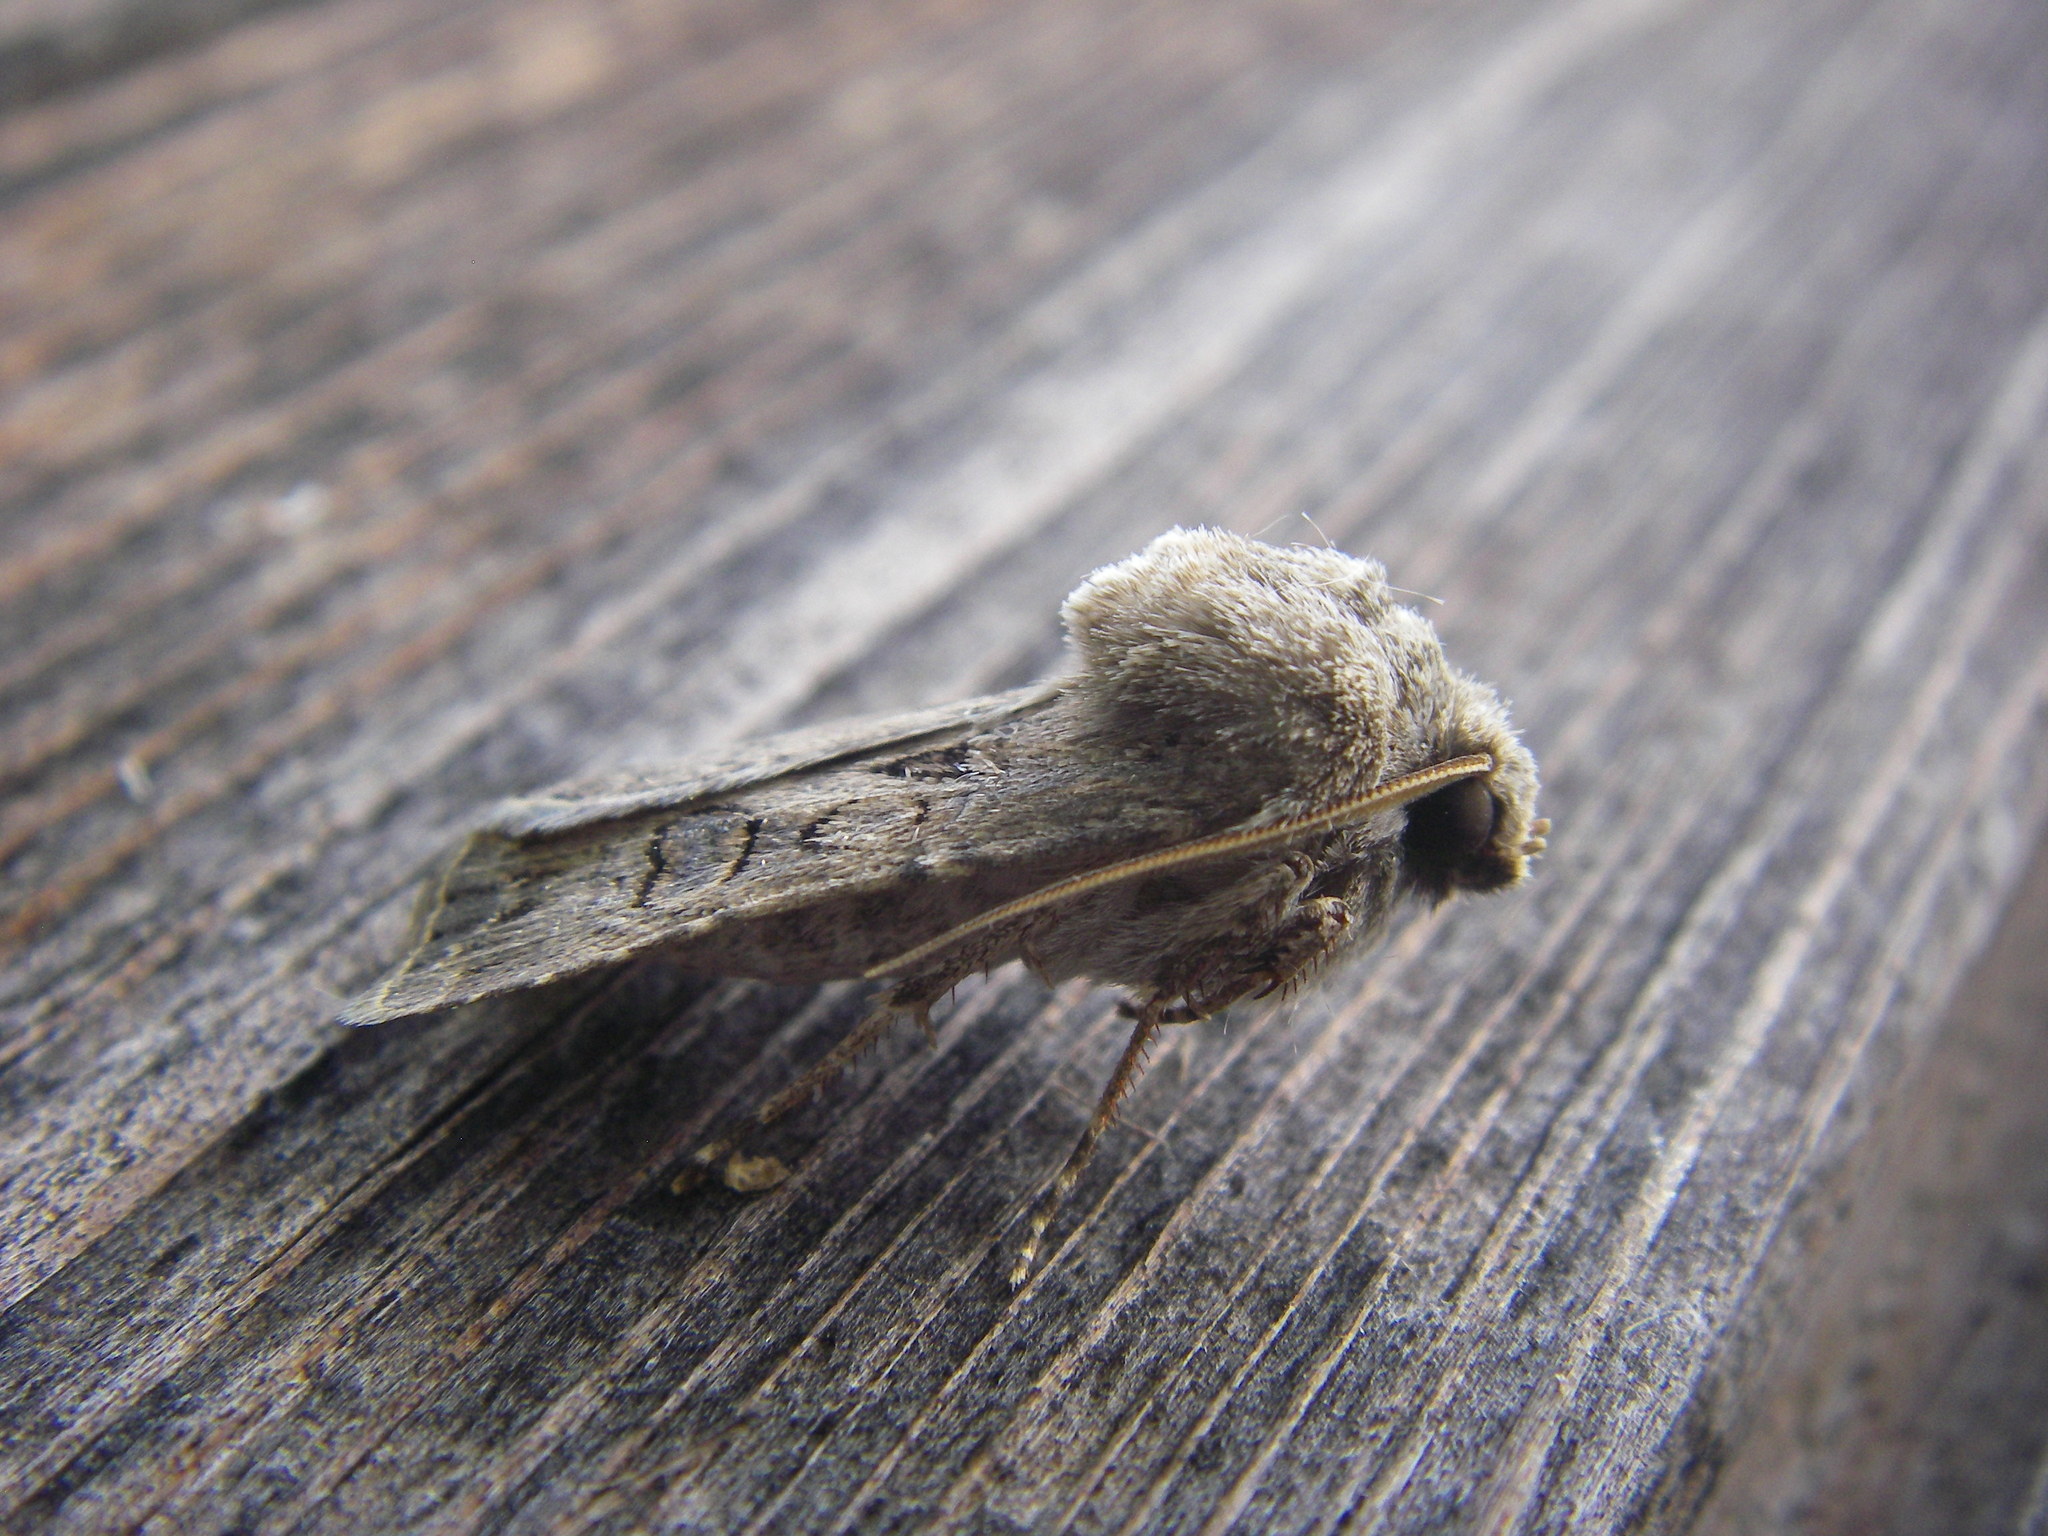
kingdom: Animalia
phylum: Arthropoda
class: Insecta
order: Lepidoptera
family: Noctuidae
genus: Agrotis
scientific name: Agrotis bigramma
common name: Great dart
